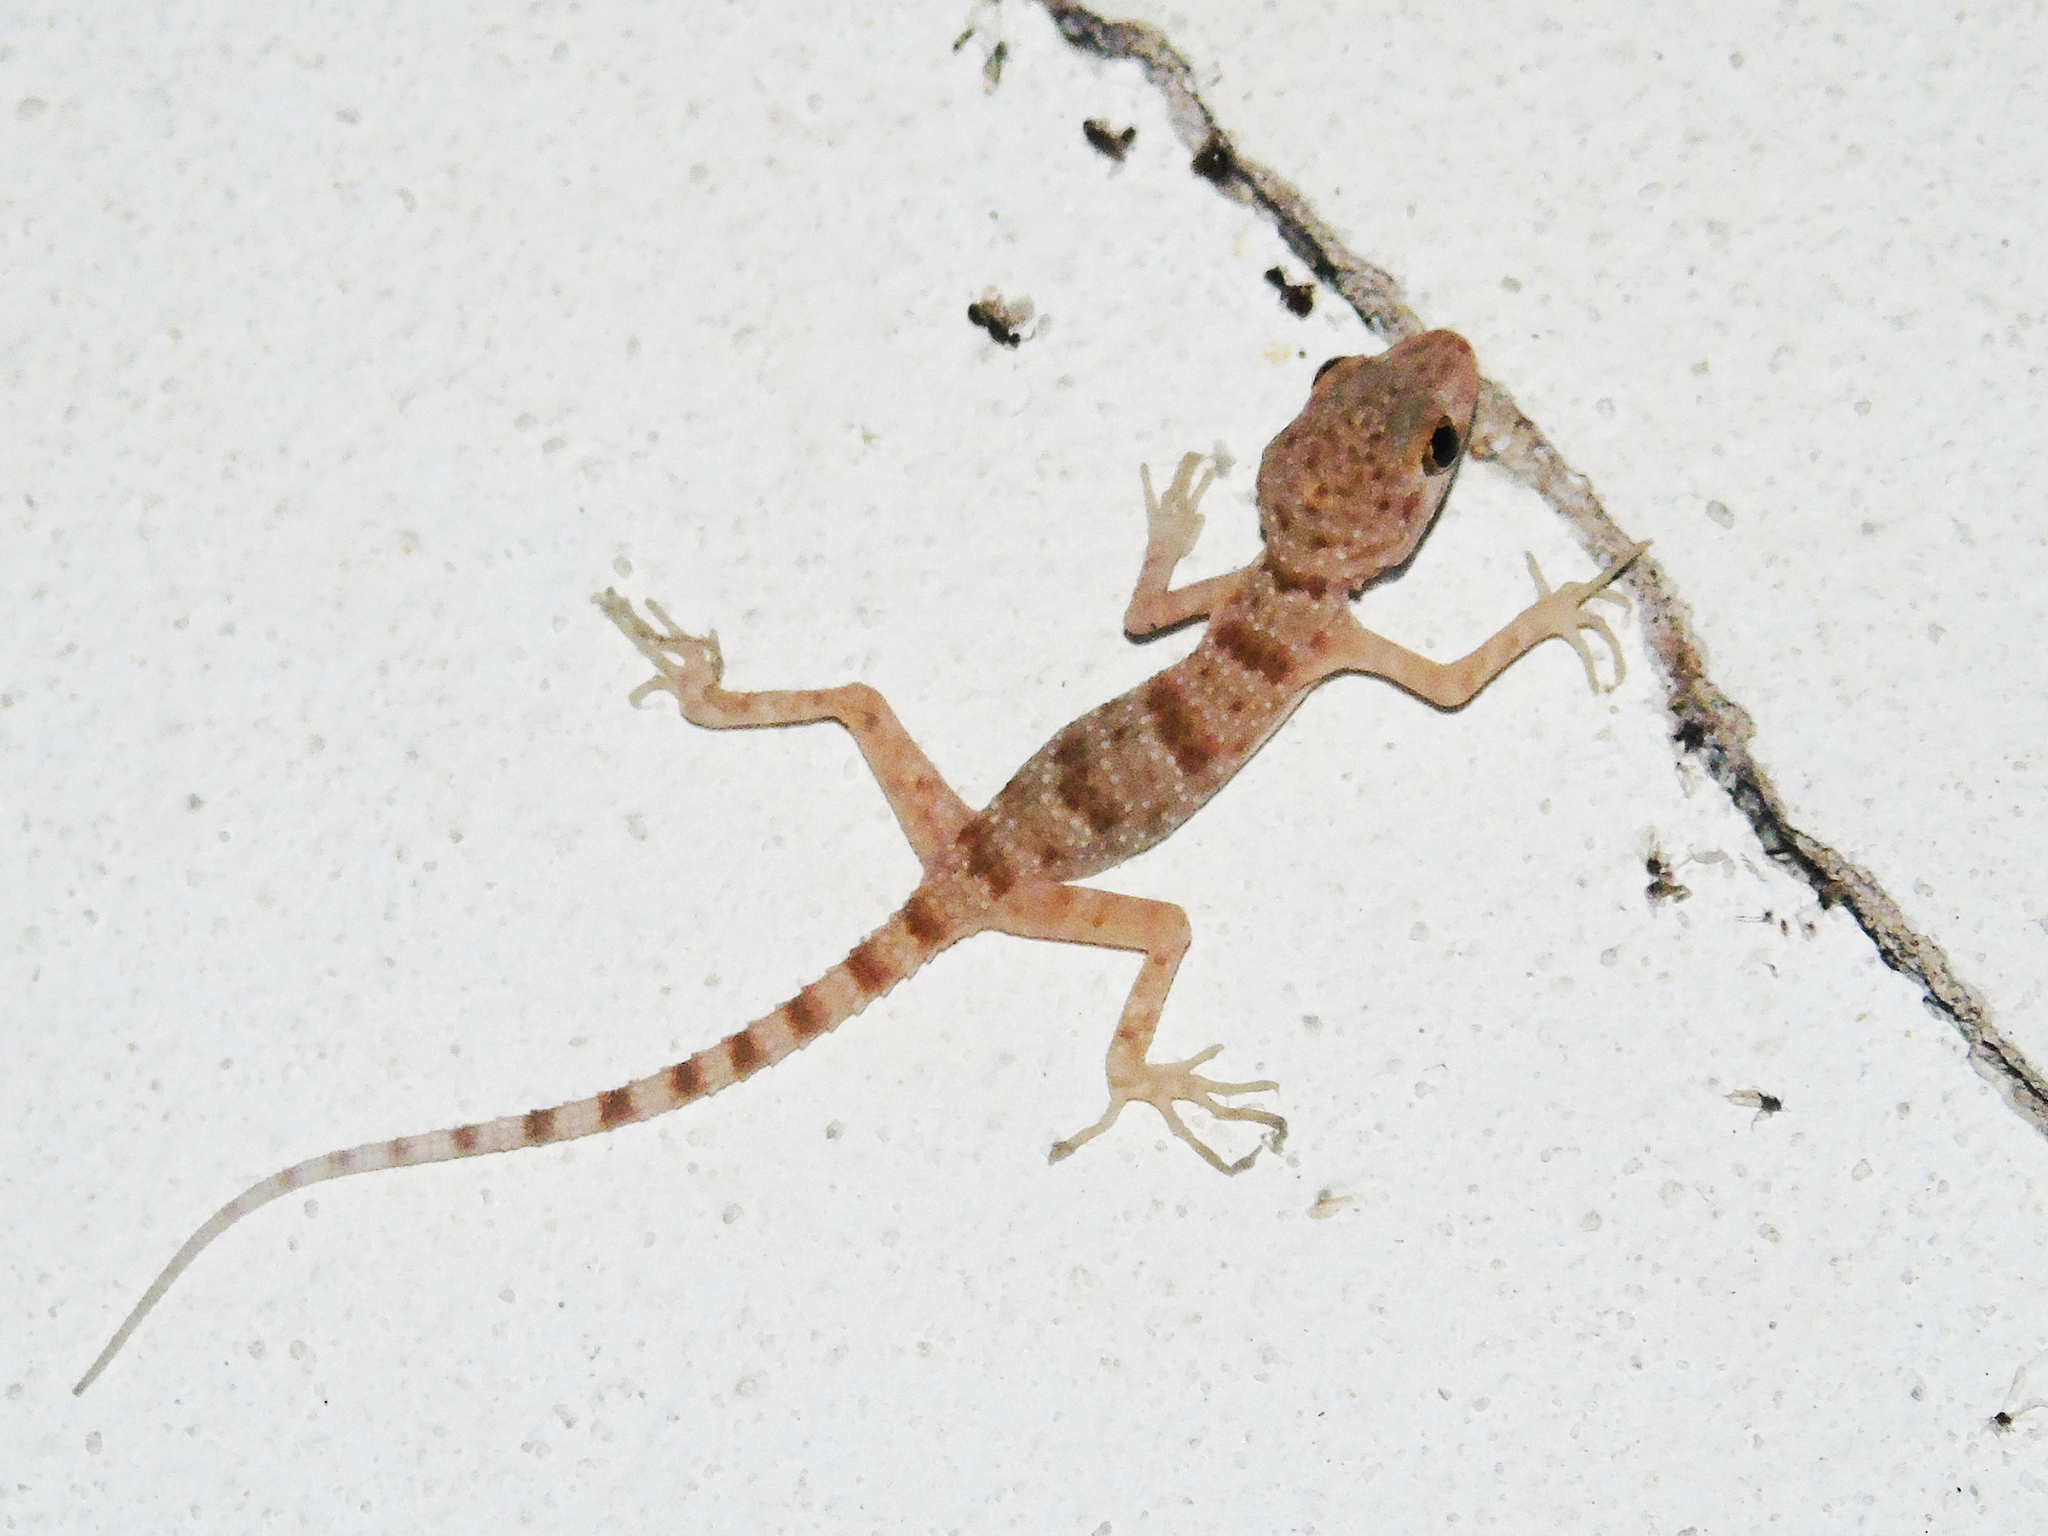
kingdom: Animalia
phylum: Chordata
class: Squamata
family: Gekkonidae
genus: Tenuidactylus
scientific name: Tenuidactylus bogdanovi
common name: Bogdanov’s thin-toed gecko
